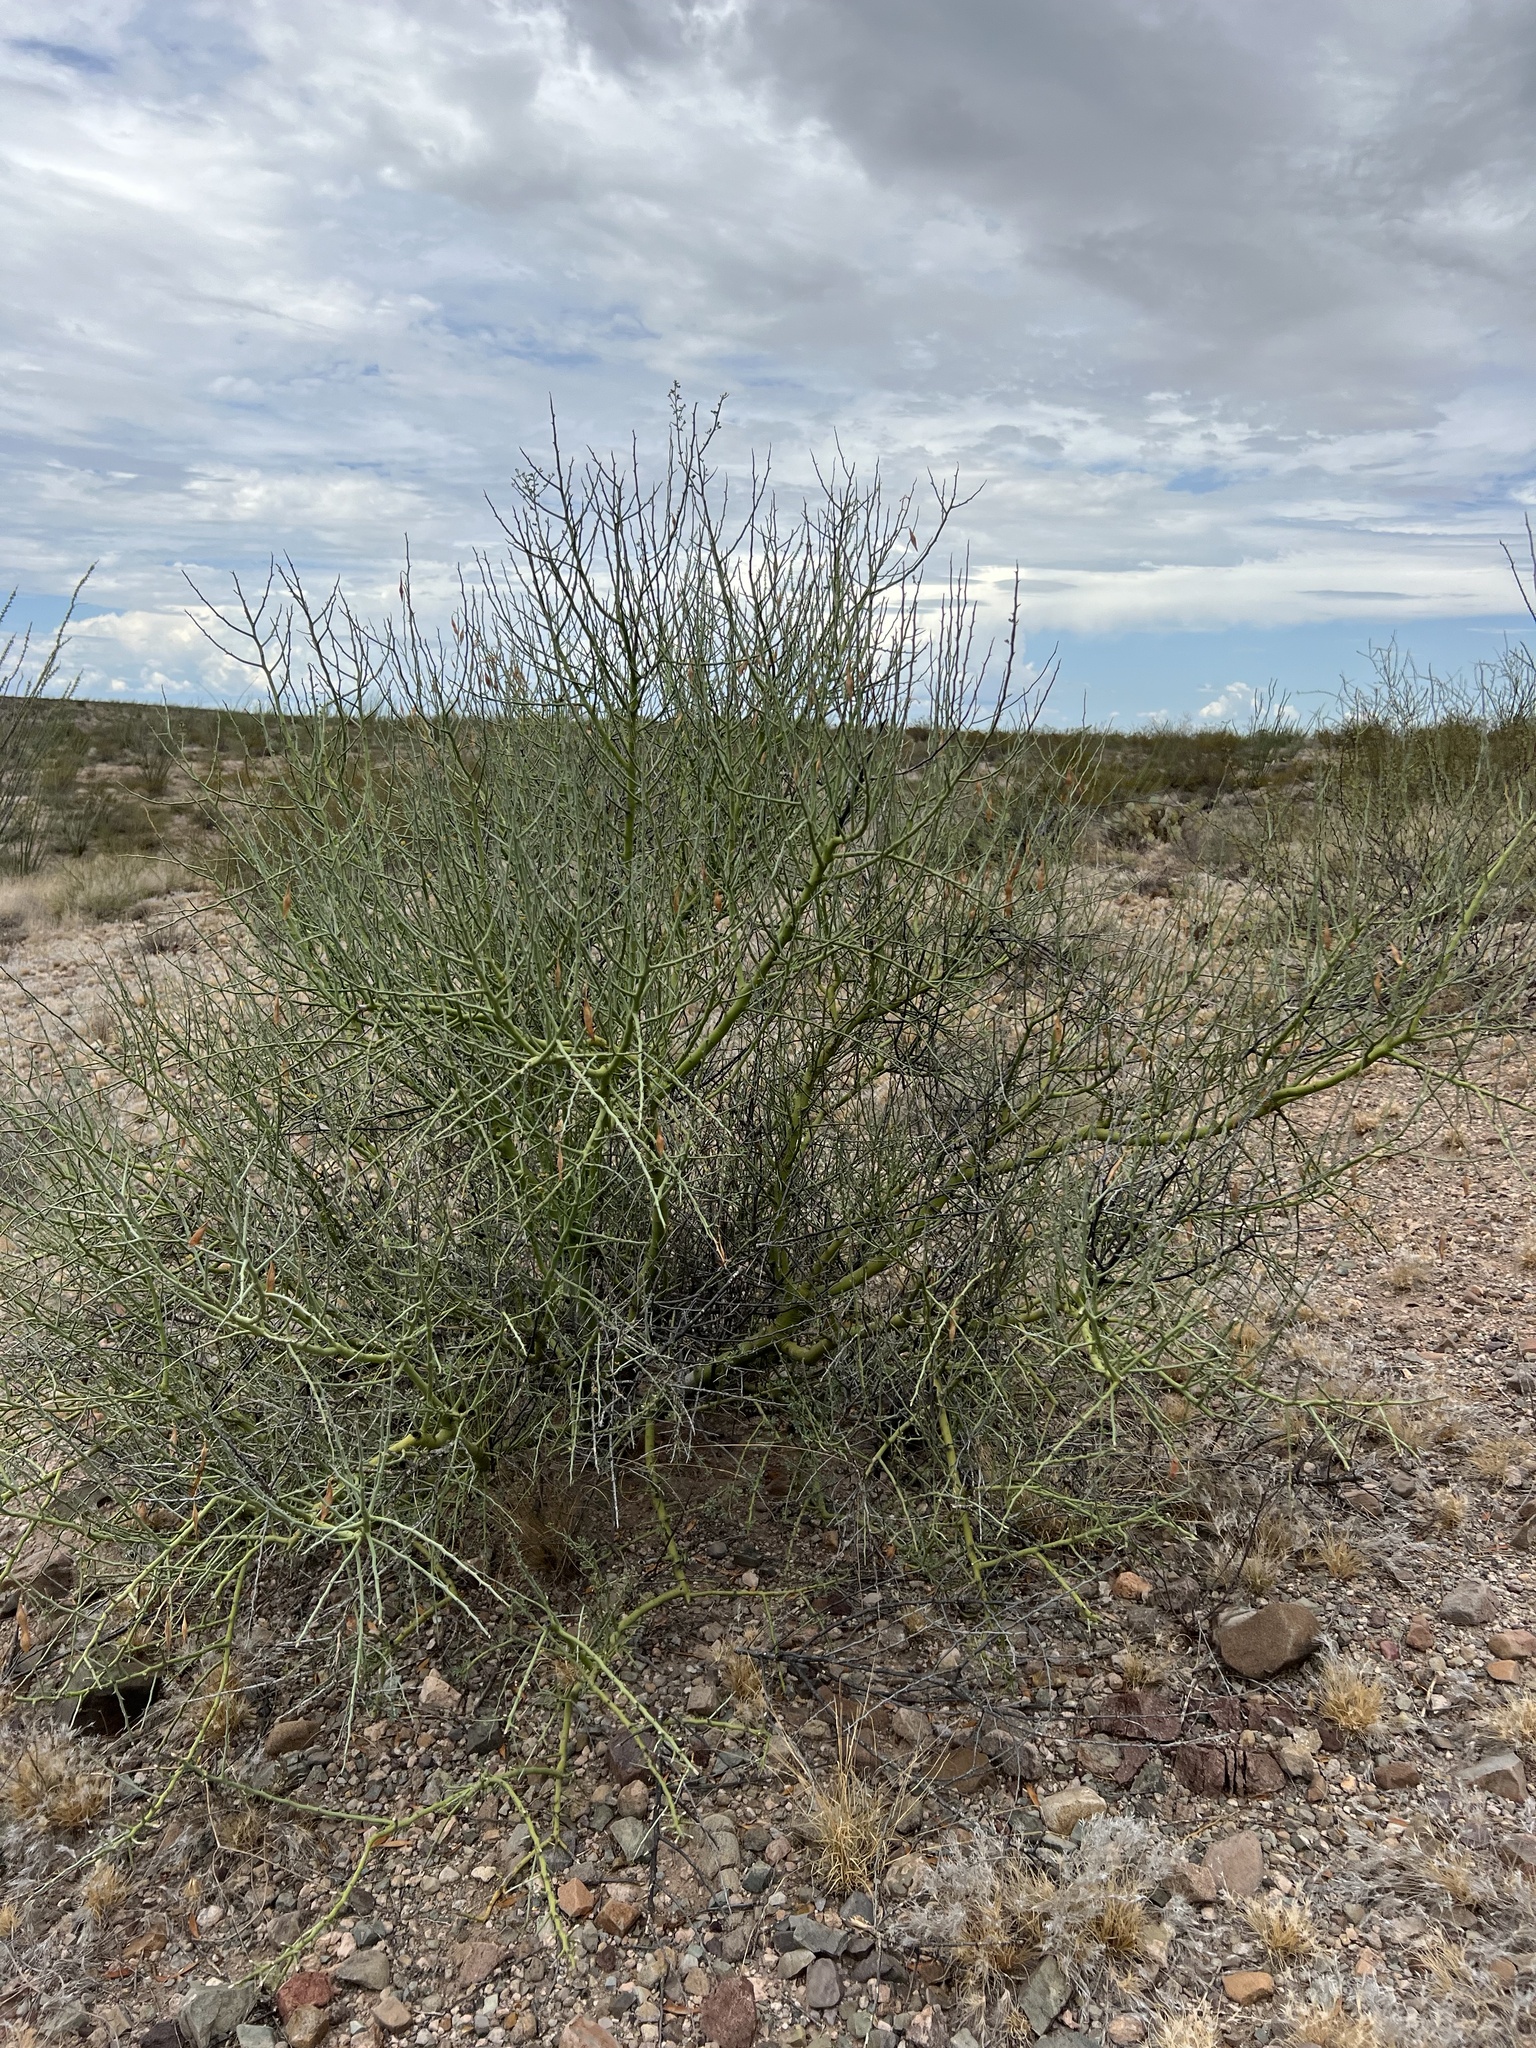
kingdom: Plantae
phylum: Tracheophyta
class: Magnoliopsida
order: Fabales
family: Fabaceae
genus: Parkinsonia
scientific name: Parkinsonia florida
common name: Blue paloverde
